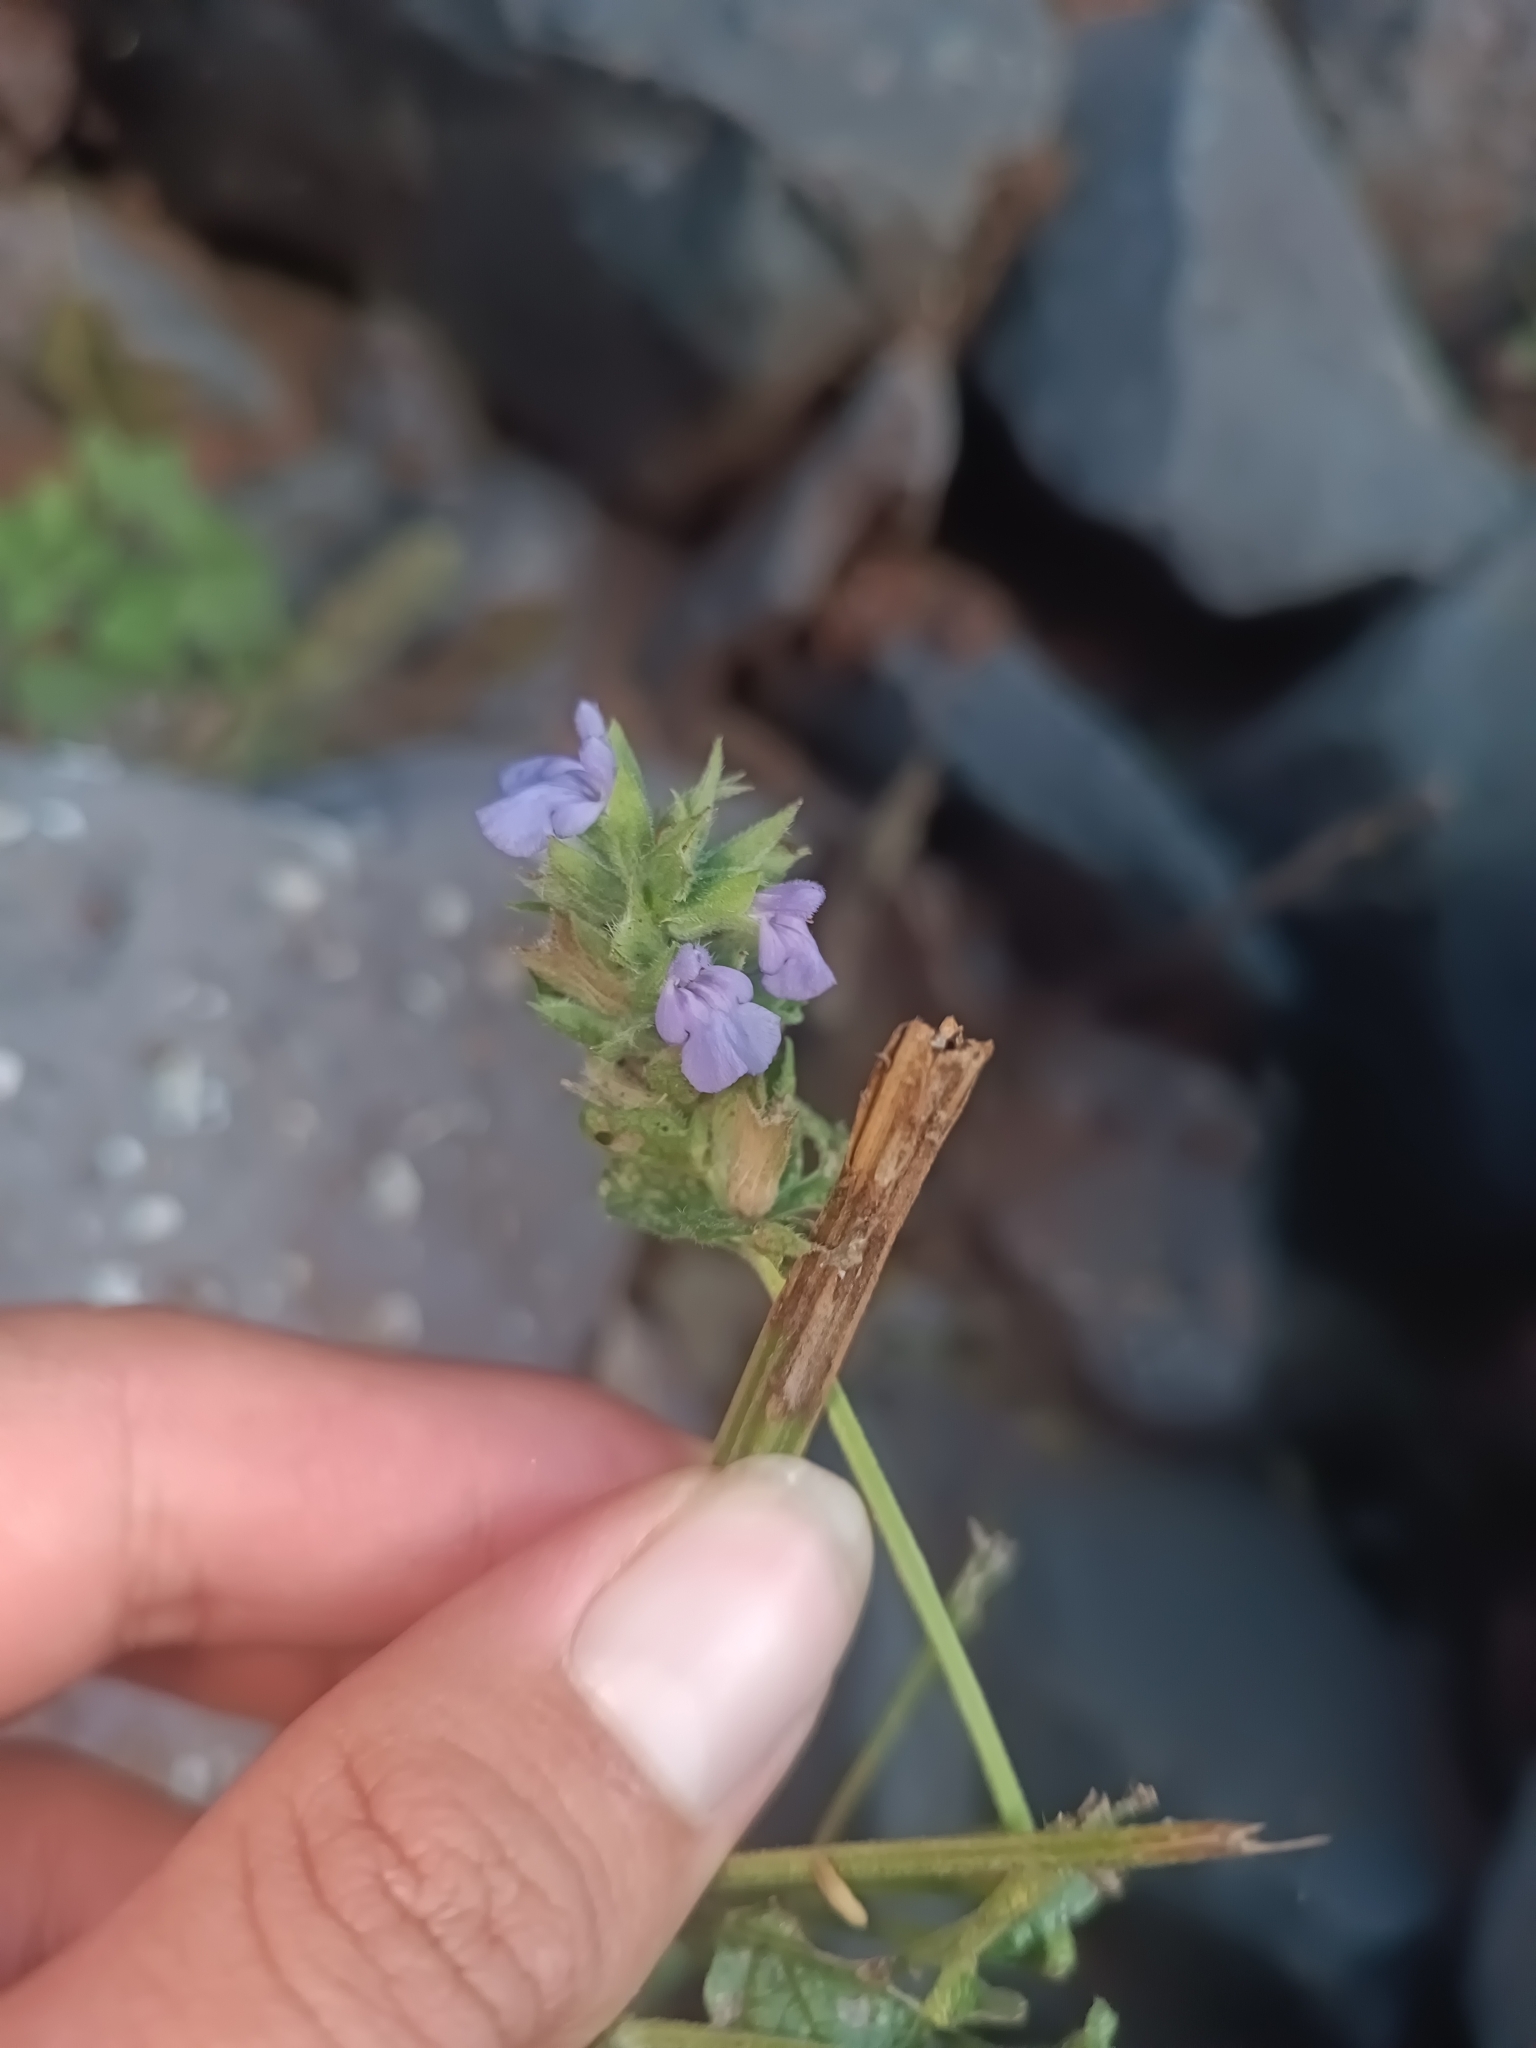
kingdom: Plantae
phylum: Tracheophyta
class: Magnoliopsida
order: Lamiales
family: Lamiaceae
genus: Salvia
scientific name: Salvia hispanica
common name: Chia
